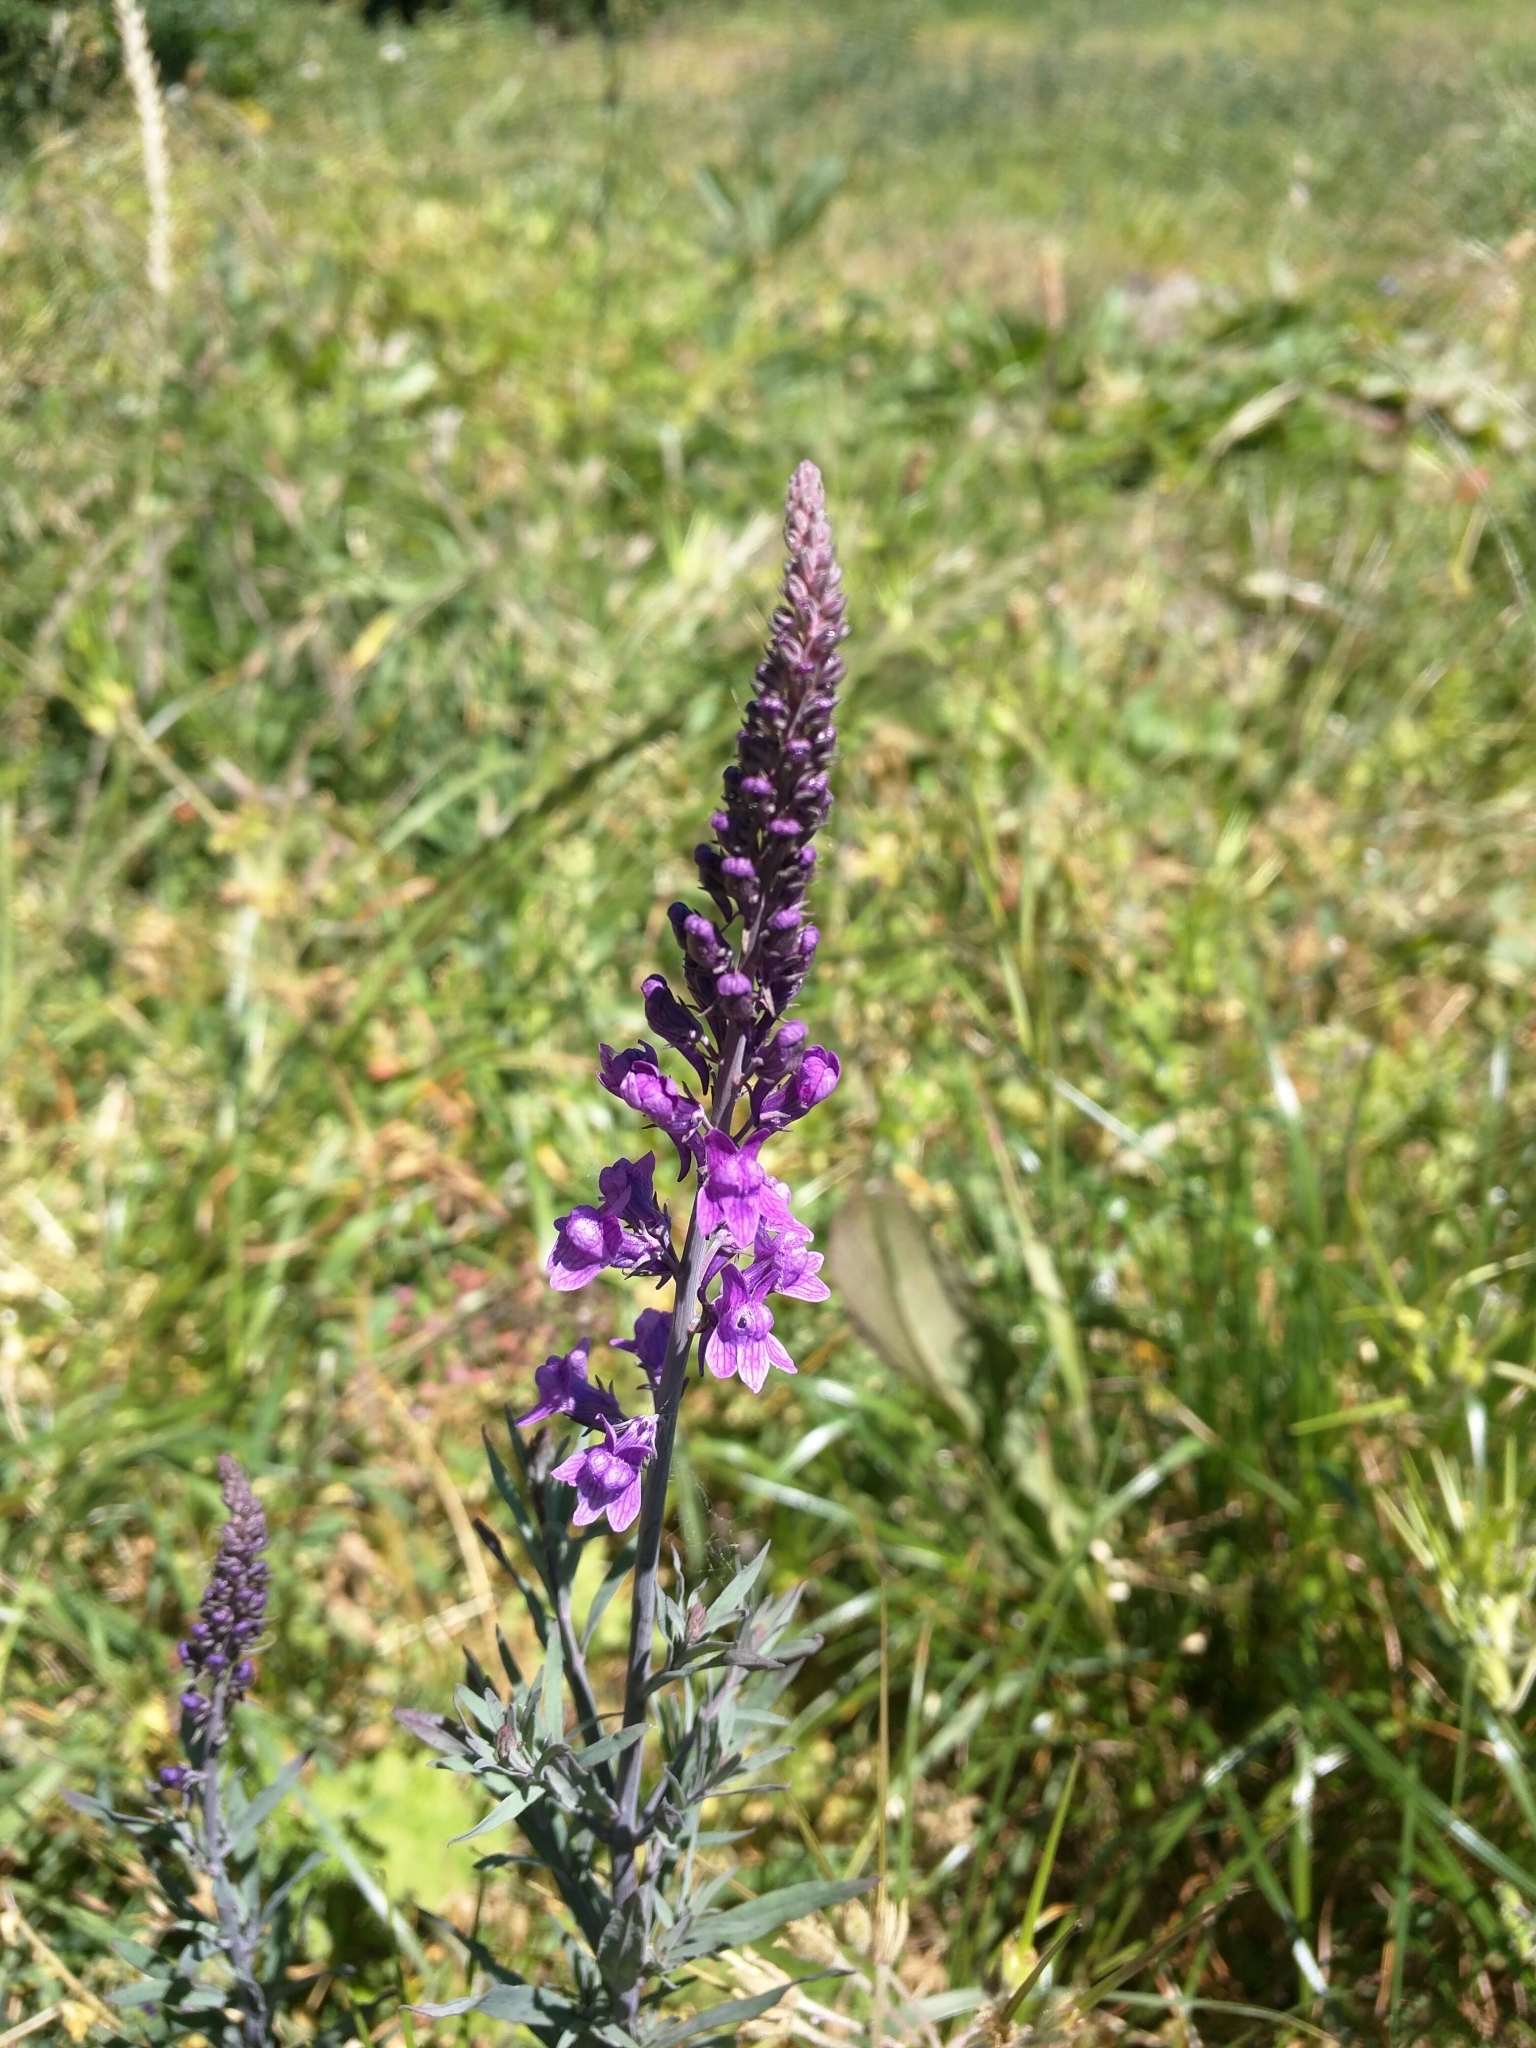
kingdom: Plantae
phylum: Tracheophyta
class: Magnoliopsida
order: Lamiales
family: Plantaginaceae
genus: Linaria
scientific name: Linaria purpurea
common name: Purple toadflax
